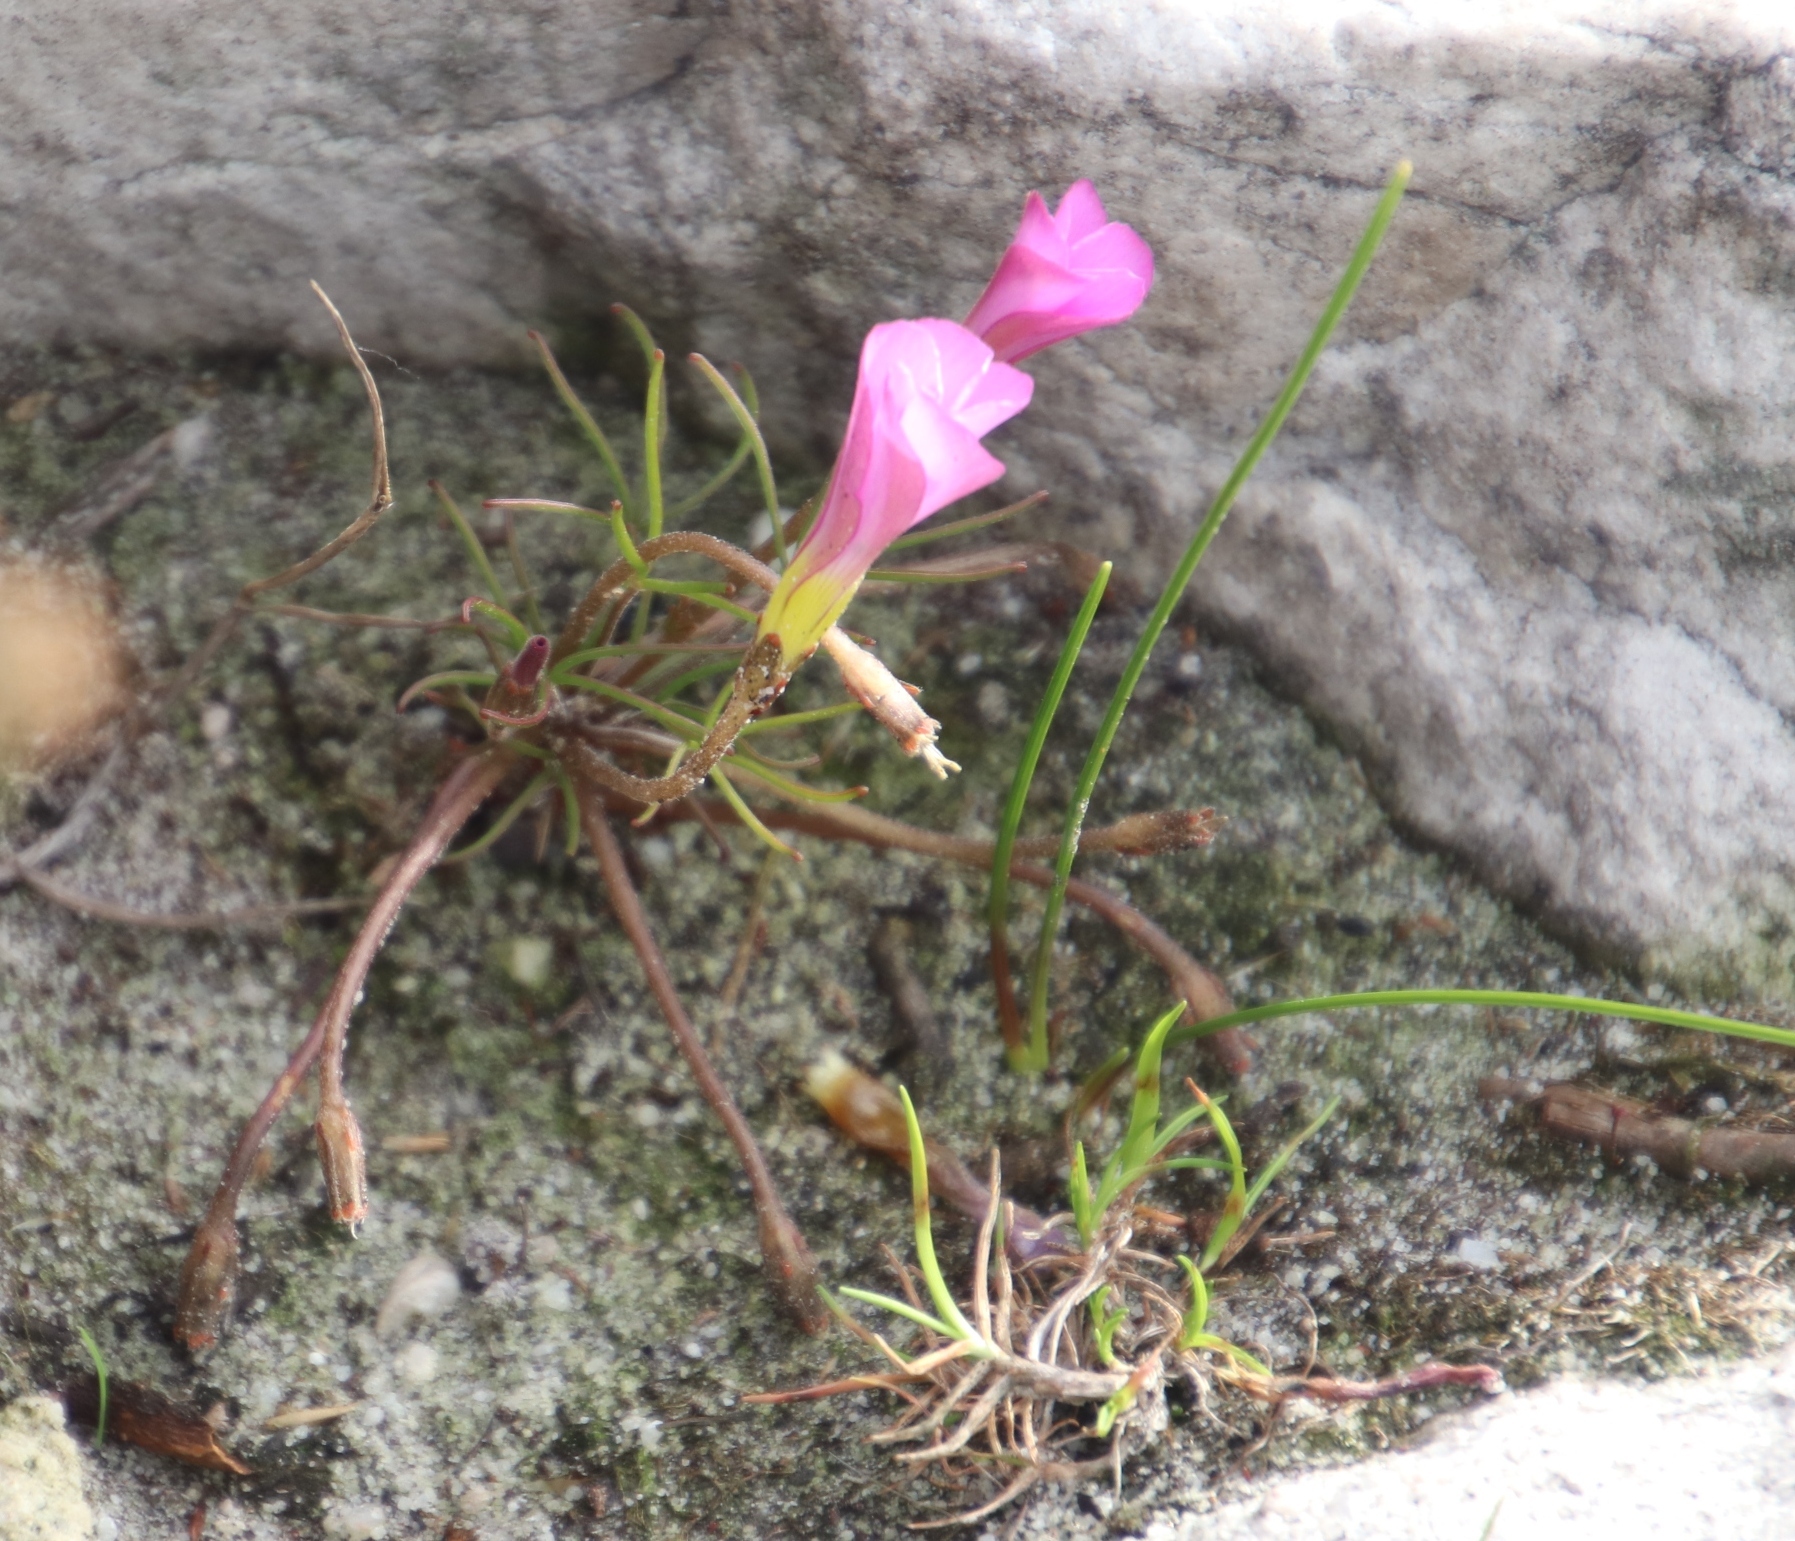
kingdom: Plantae
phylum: Tracheophyta
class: Magnoliopsida
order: Oxalidales
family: Oxalidaceae
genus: Oxalis
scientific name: Oxalis polyphylla
